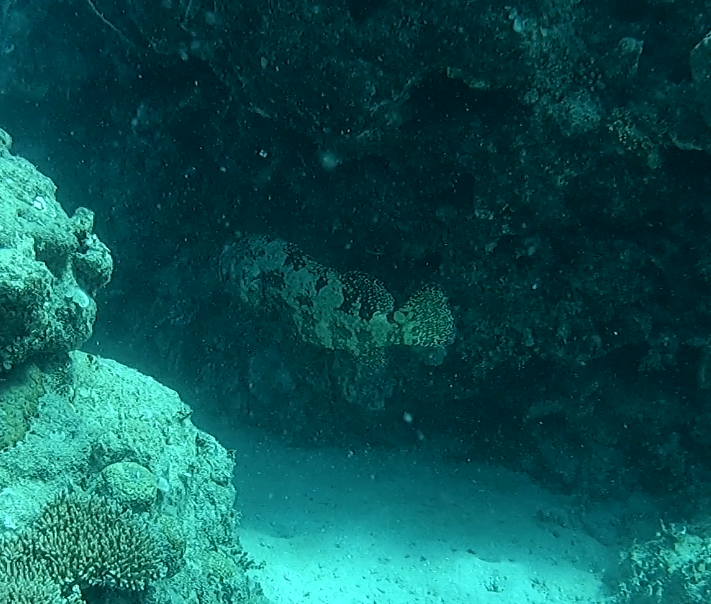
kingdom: Animalia
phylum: Chordata
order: Perciformes
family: Serranidae
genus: Epinephelus
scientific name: Epinephelus fuscoguttatus
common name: Brown-marbled grouper
